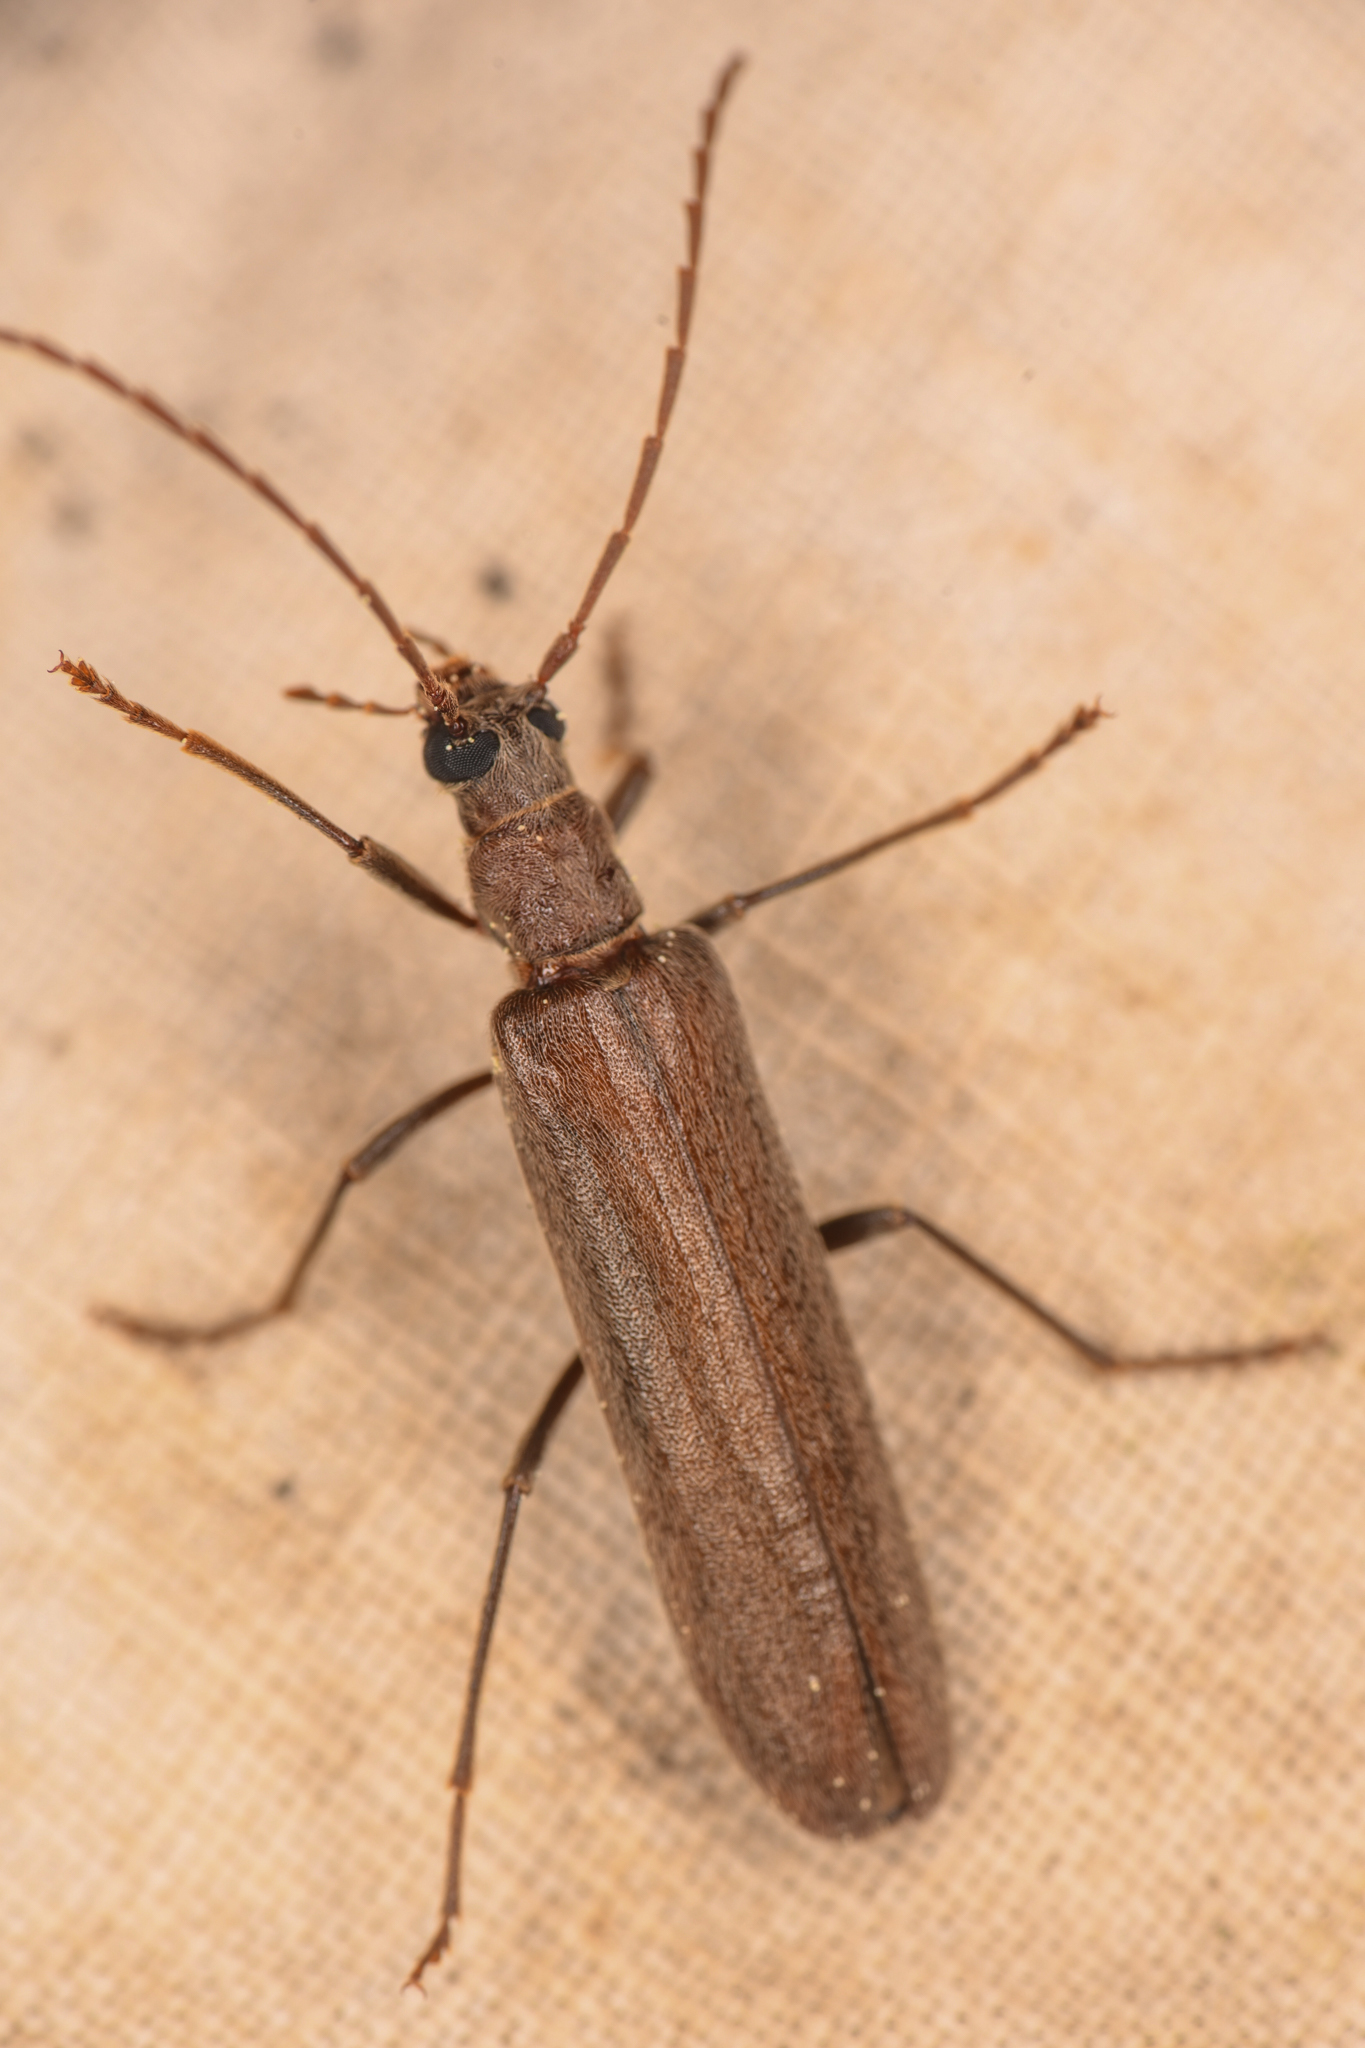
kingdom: Animalia
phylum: Arthropoda
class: Insecta
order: Coleoptera
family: Oedemeridae
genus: Calopus
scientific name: Calopus angustus
